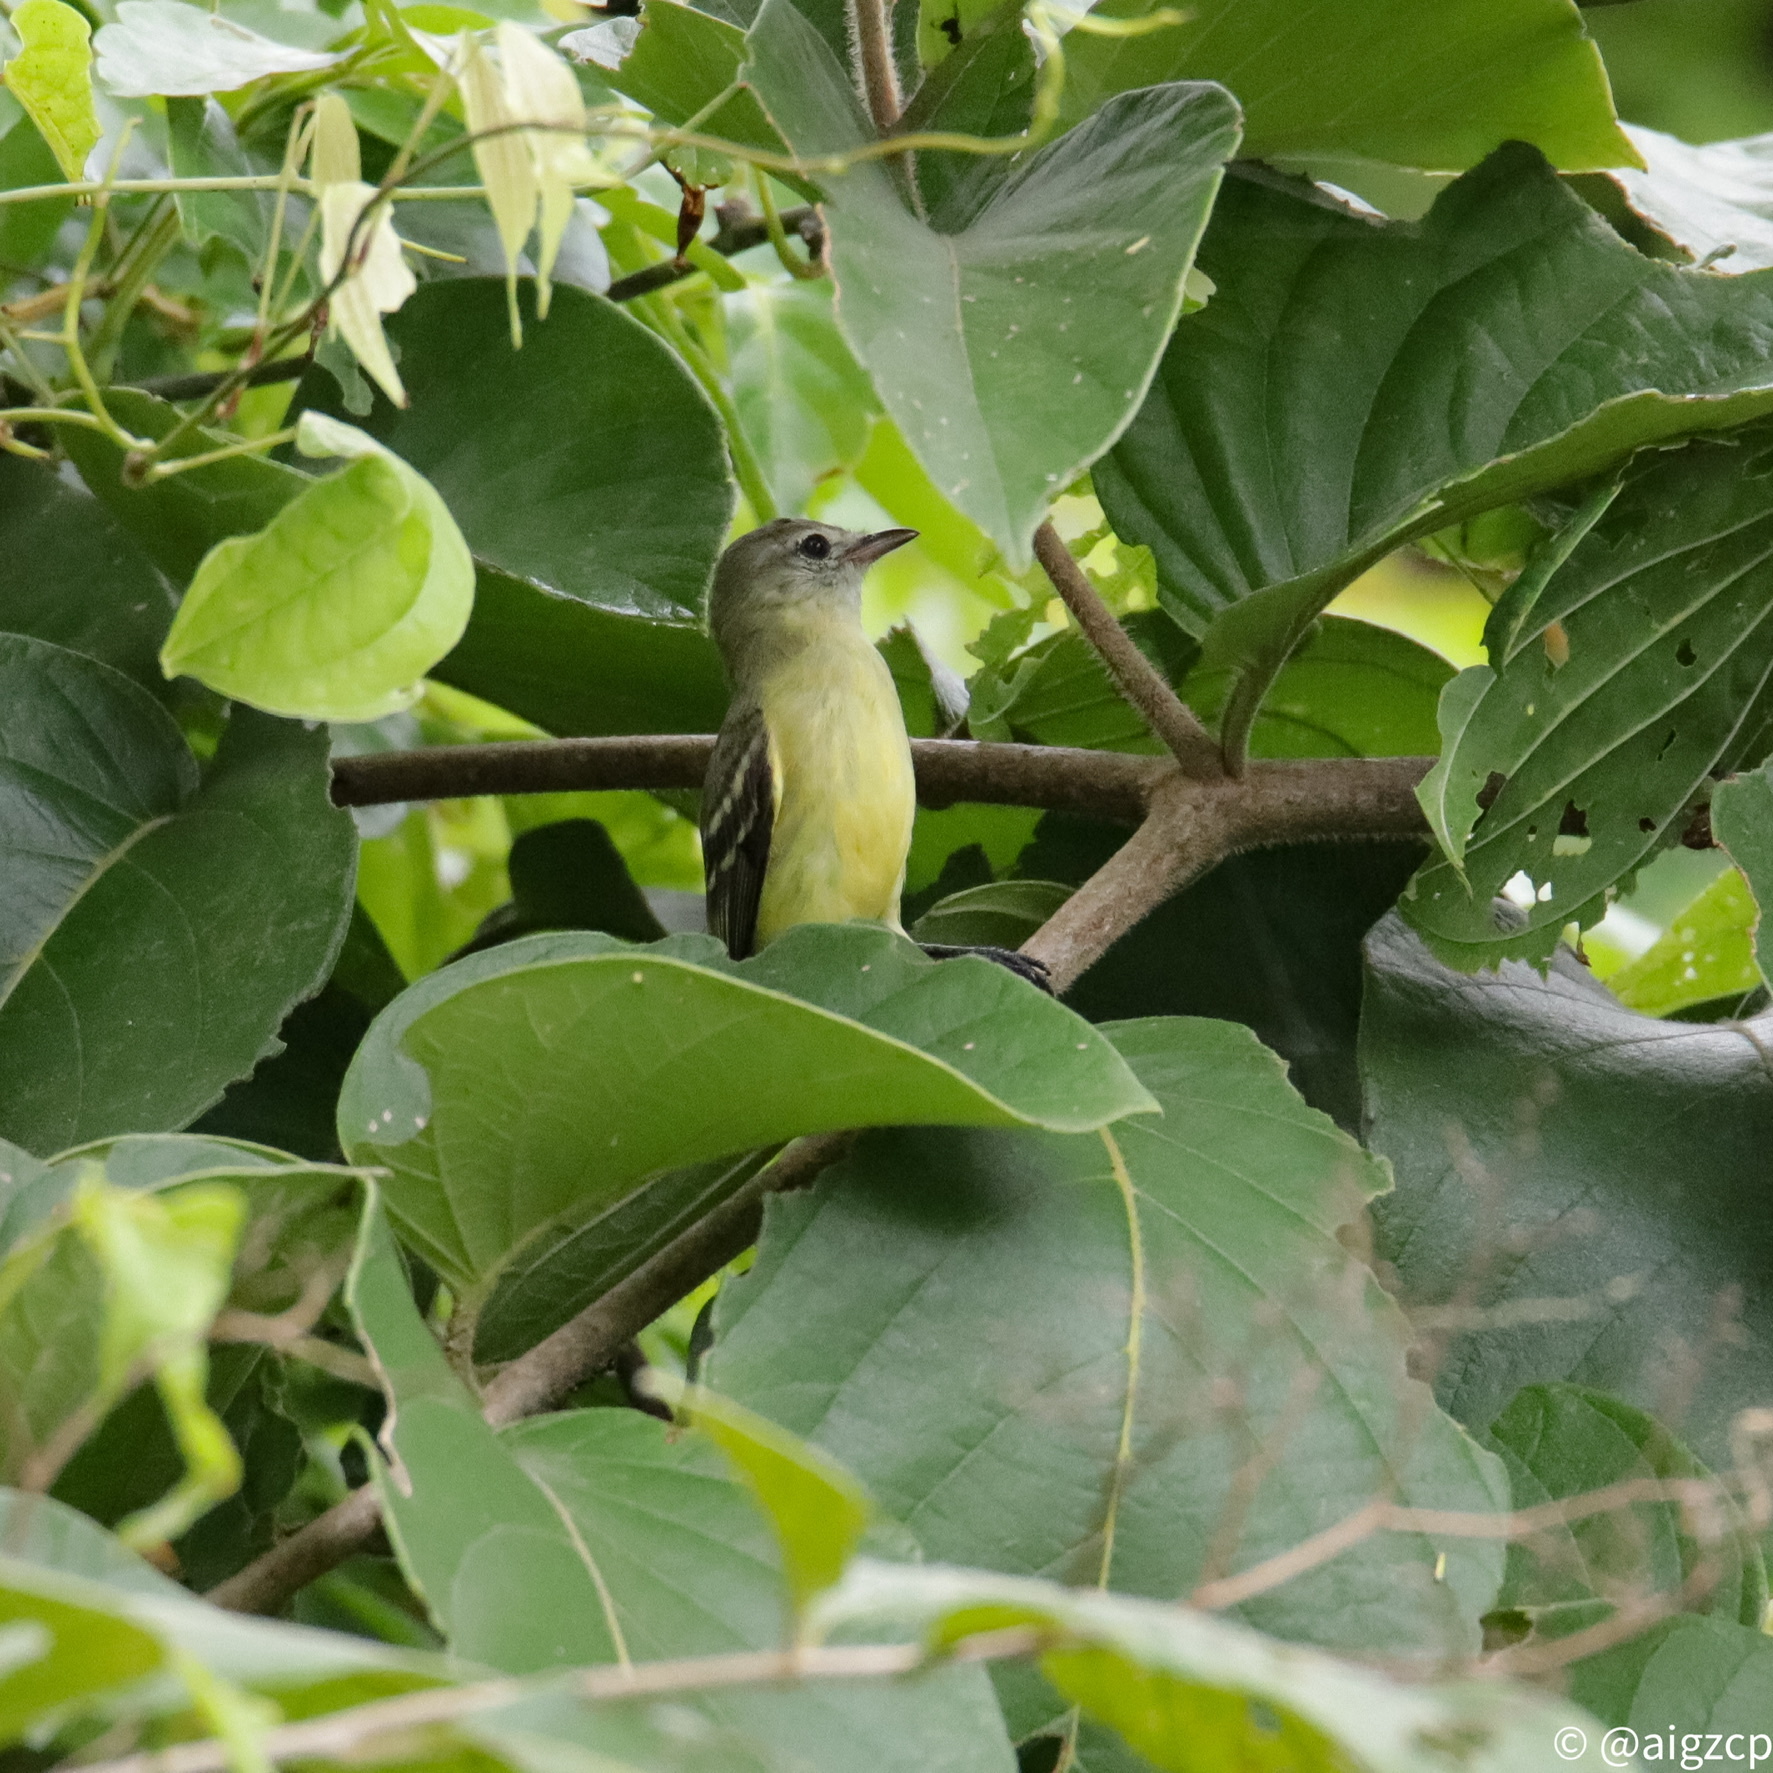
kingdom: Animalia
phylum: Chordata
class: Aves
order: Passeriformes
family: Tyrannidae
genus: Camptostoma
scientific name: Camptostoma obsoletum
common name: Southern beardless-tyrannulet
